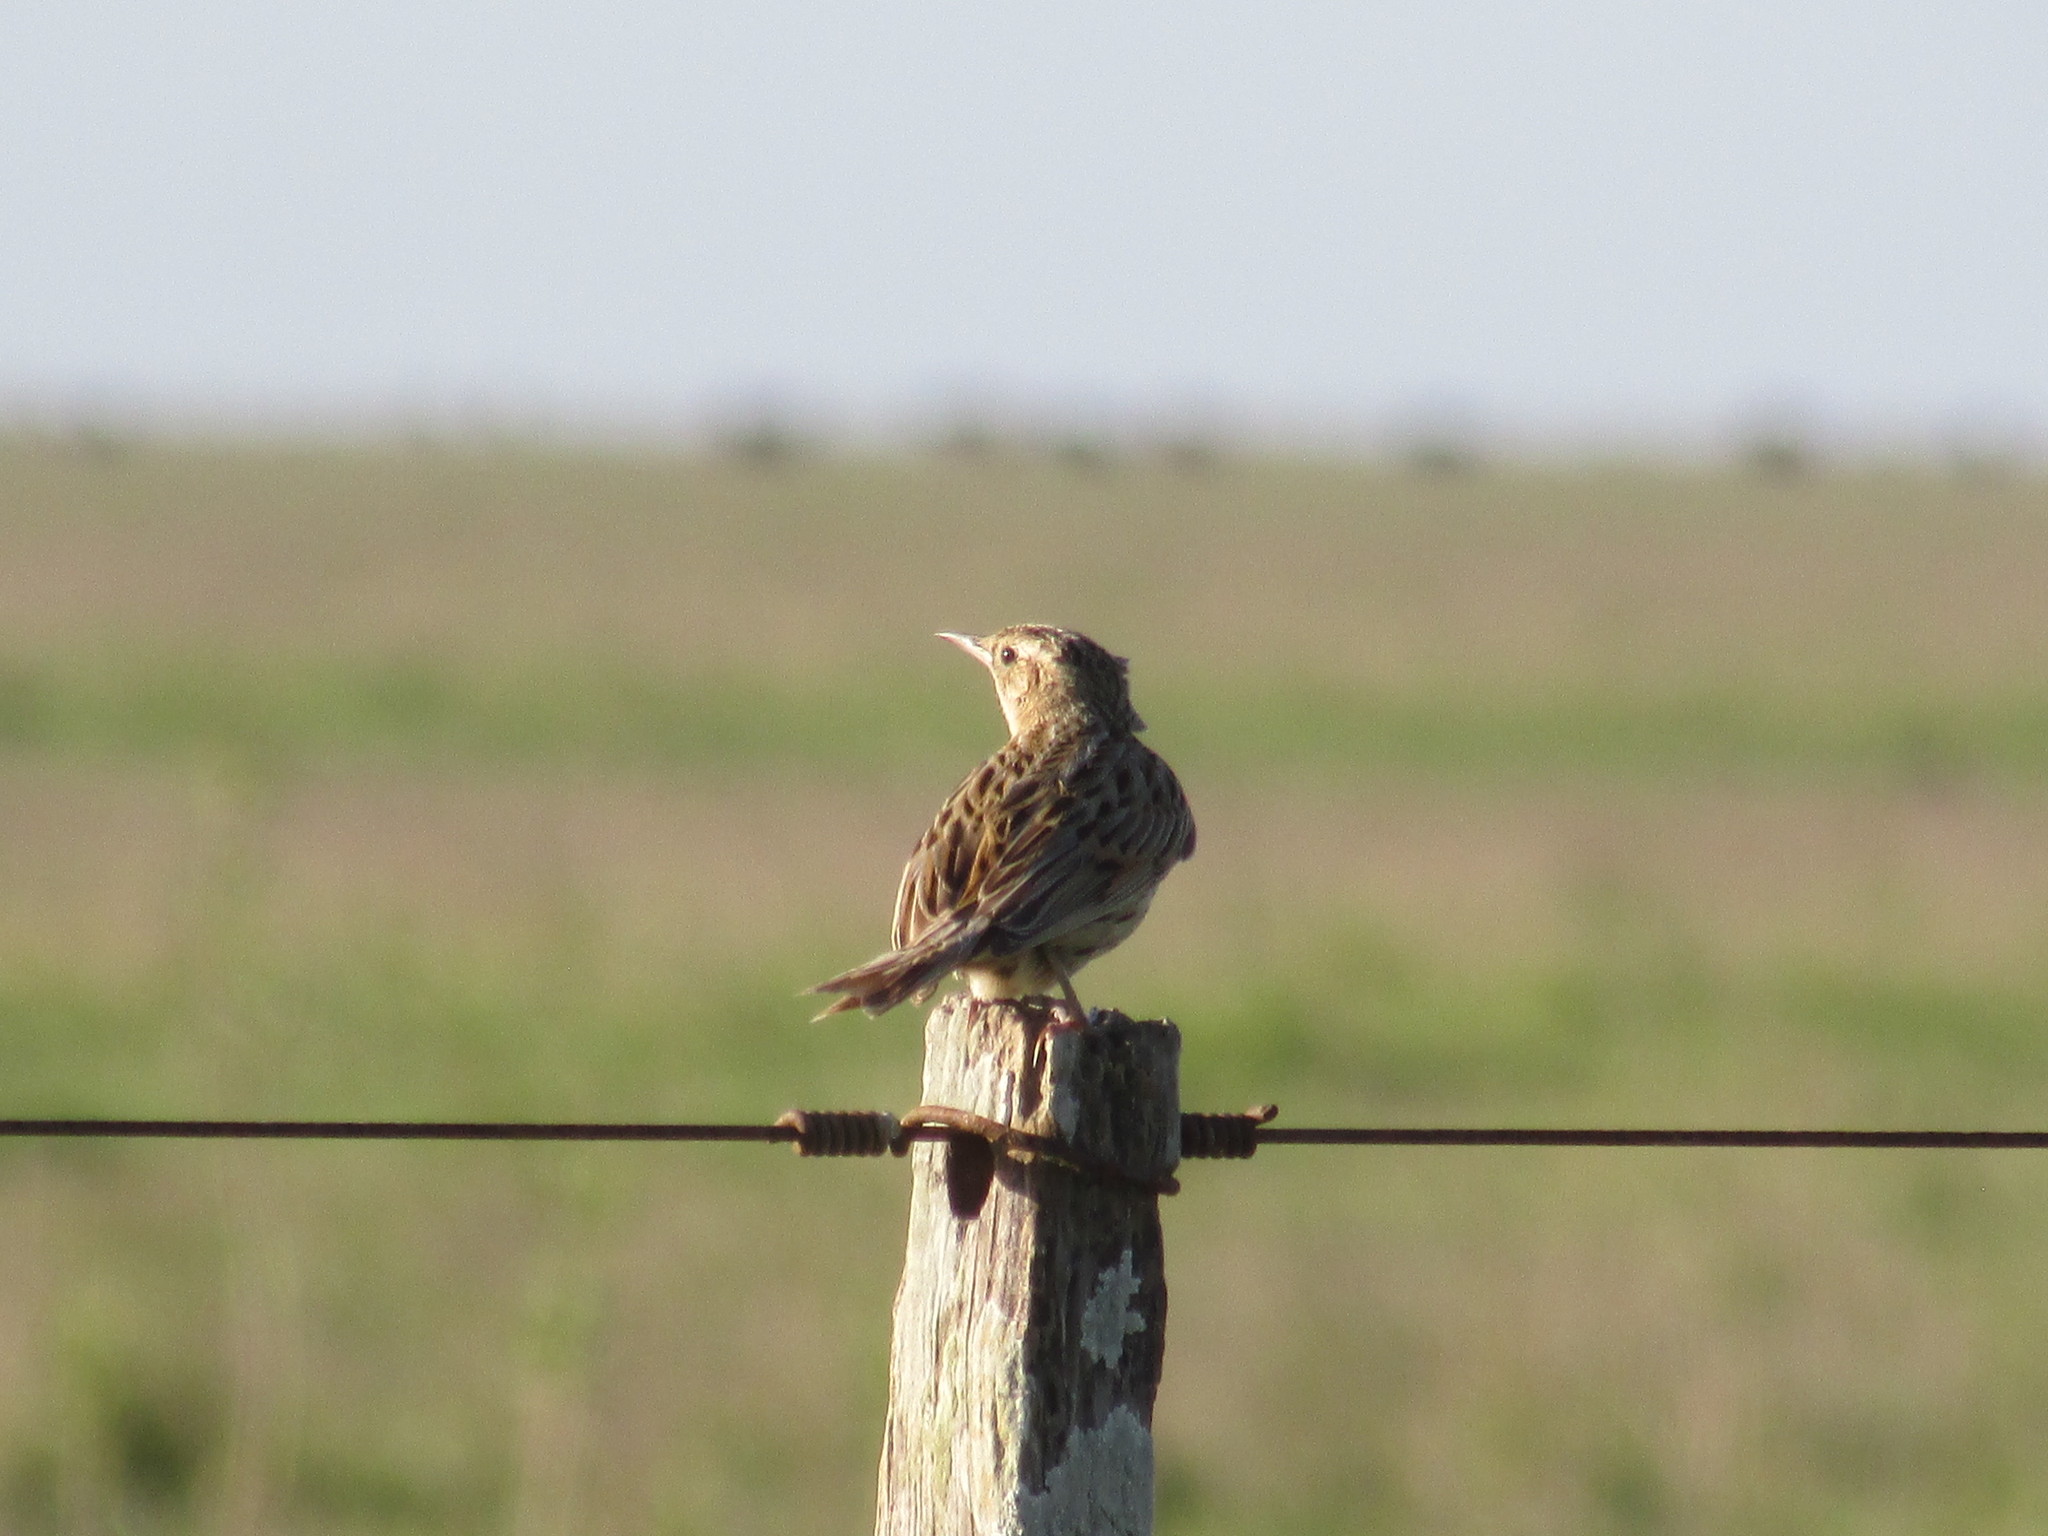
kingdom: Animalia
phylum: Chordata
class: Aves
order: Passeriformes
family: Furnariidae
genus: Asthenes
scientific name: Asthenes hudsoni
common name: Hudson's canastero
